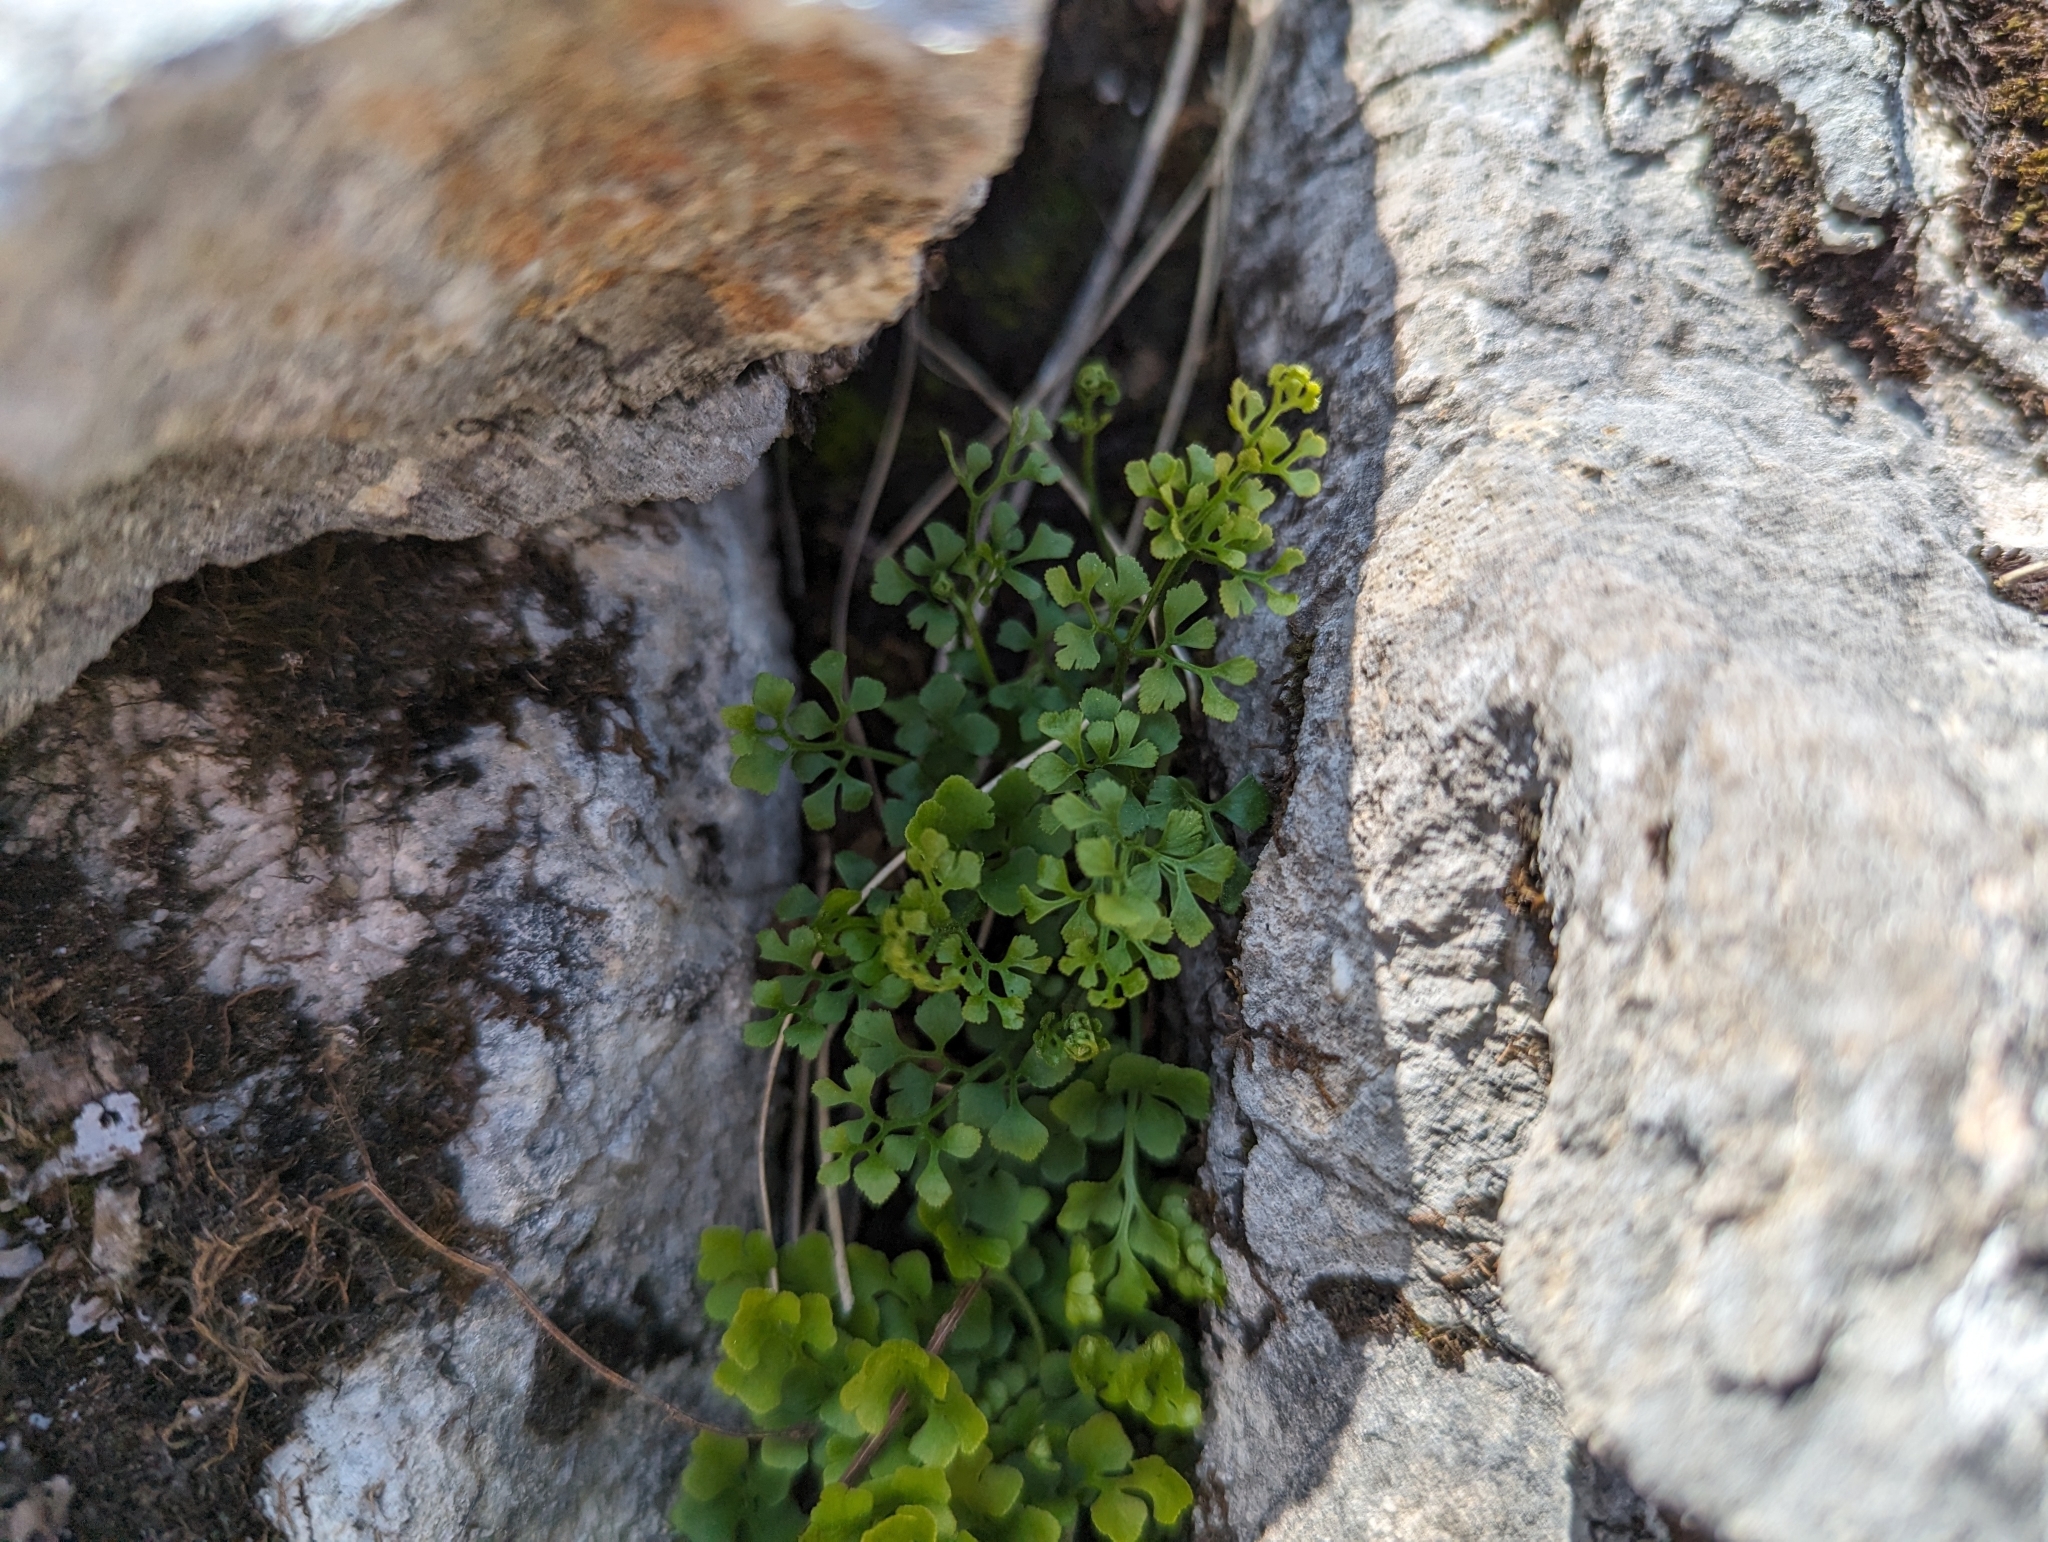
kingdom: Plantae
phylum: Tracheophyta
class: Polypodiopsida
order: Polypodiales
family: Aspleniaceae
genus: Asplenium
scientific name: Asplenium ruta-muraria
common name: Wall-rue
